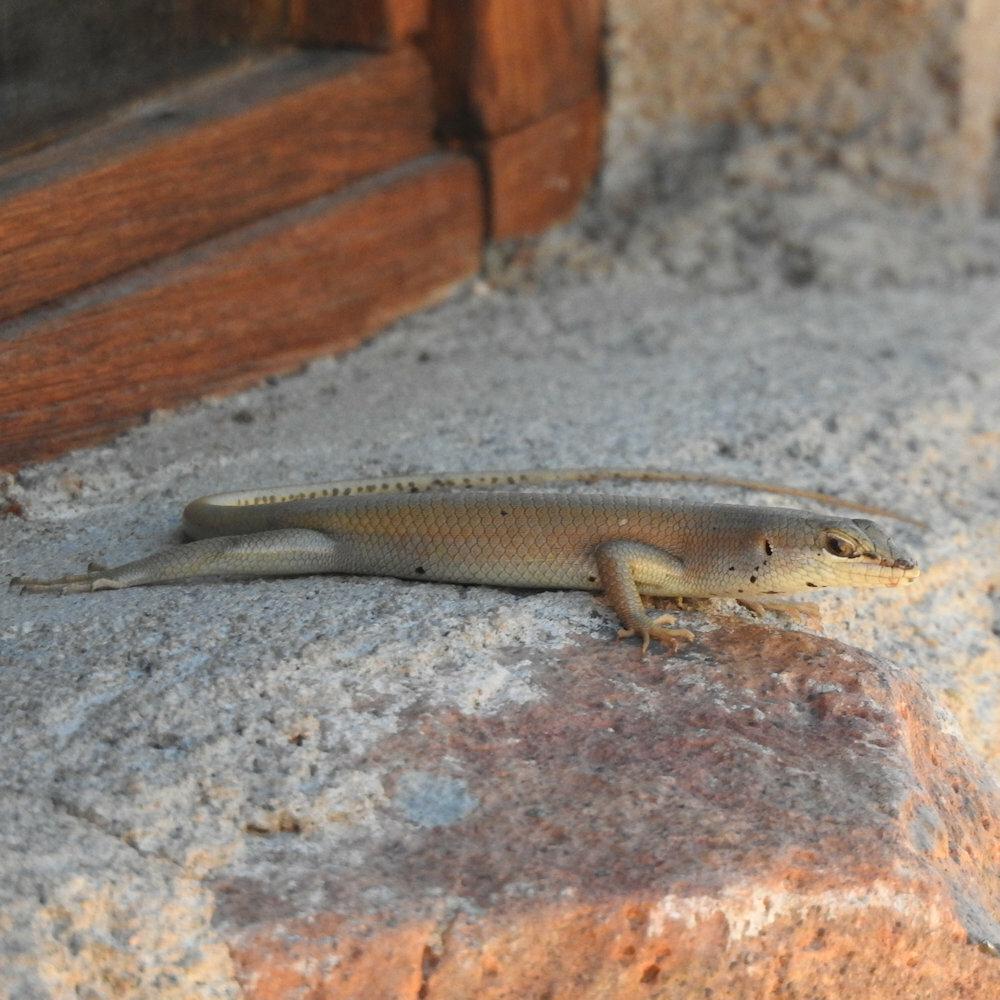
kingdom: Animalia
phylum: Chordata
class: Squamata
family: Scincidae
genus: Trachylepis
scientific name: Trachylepis sulcata
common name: Western rock skink
